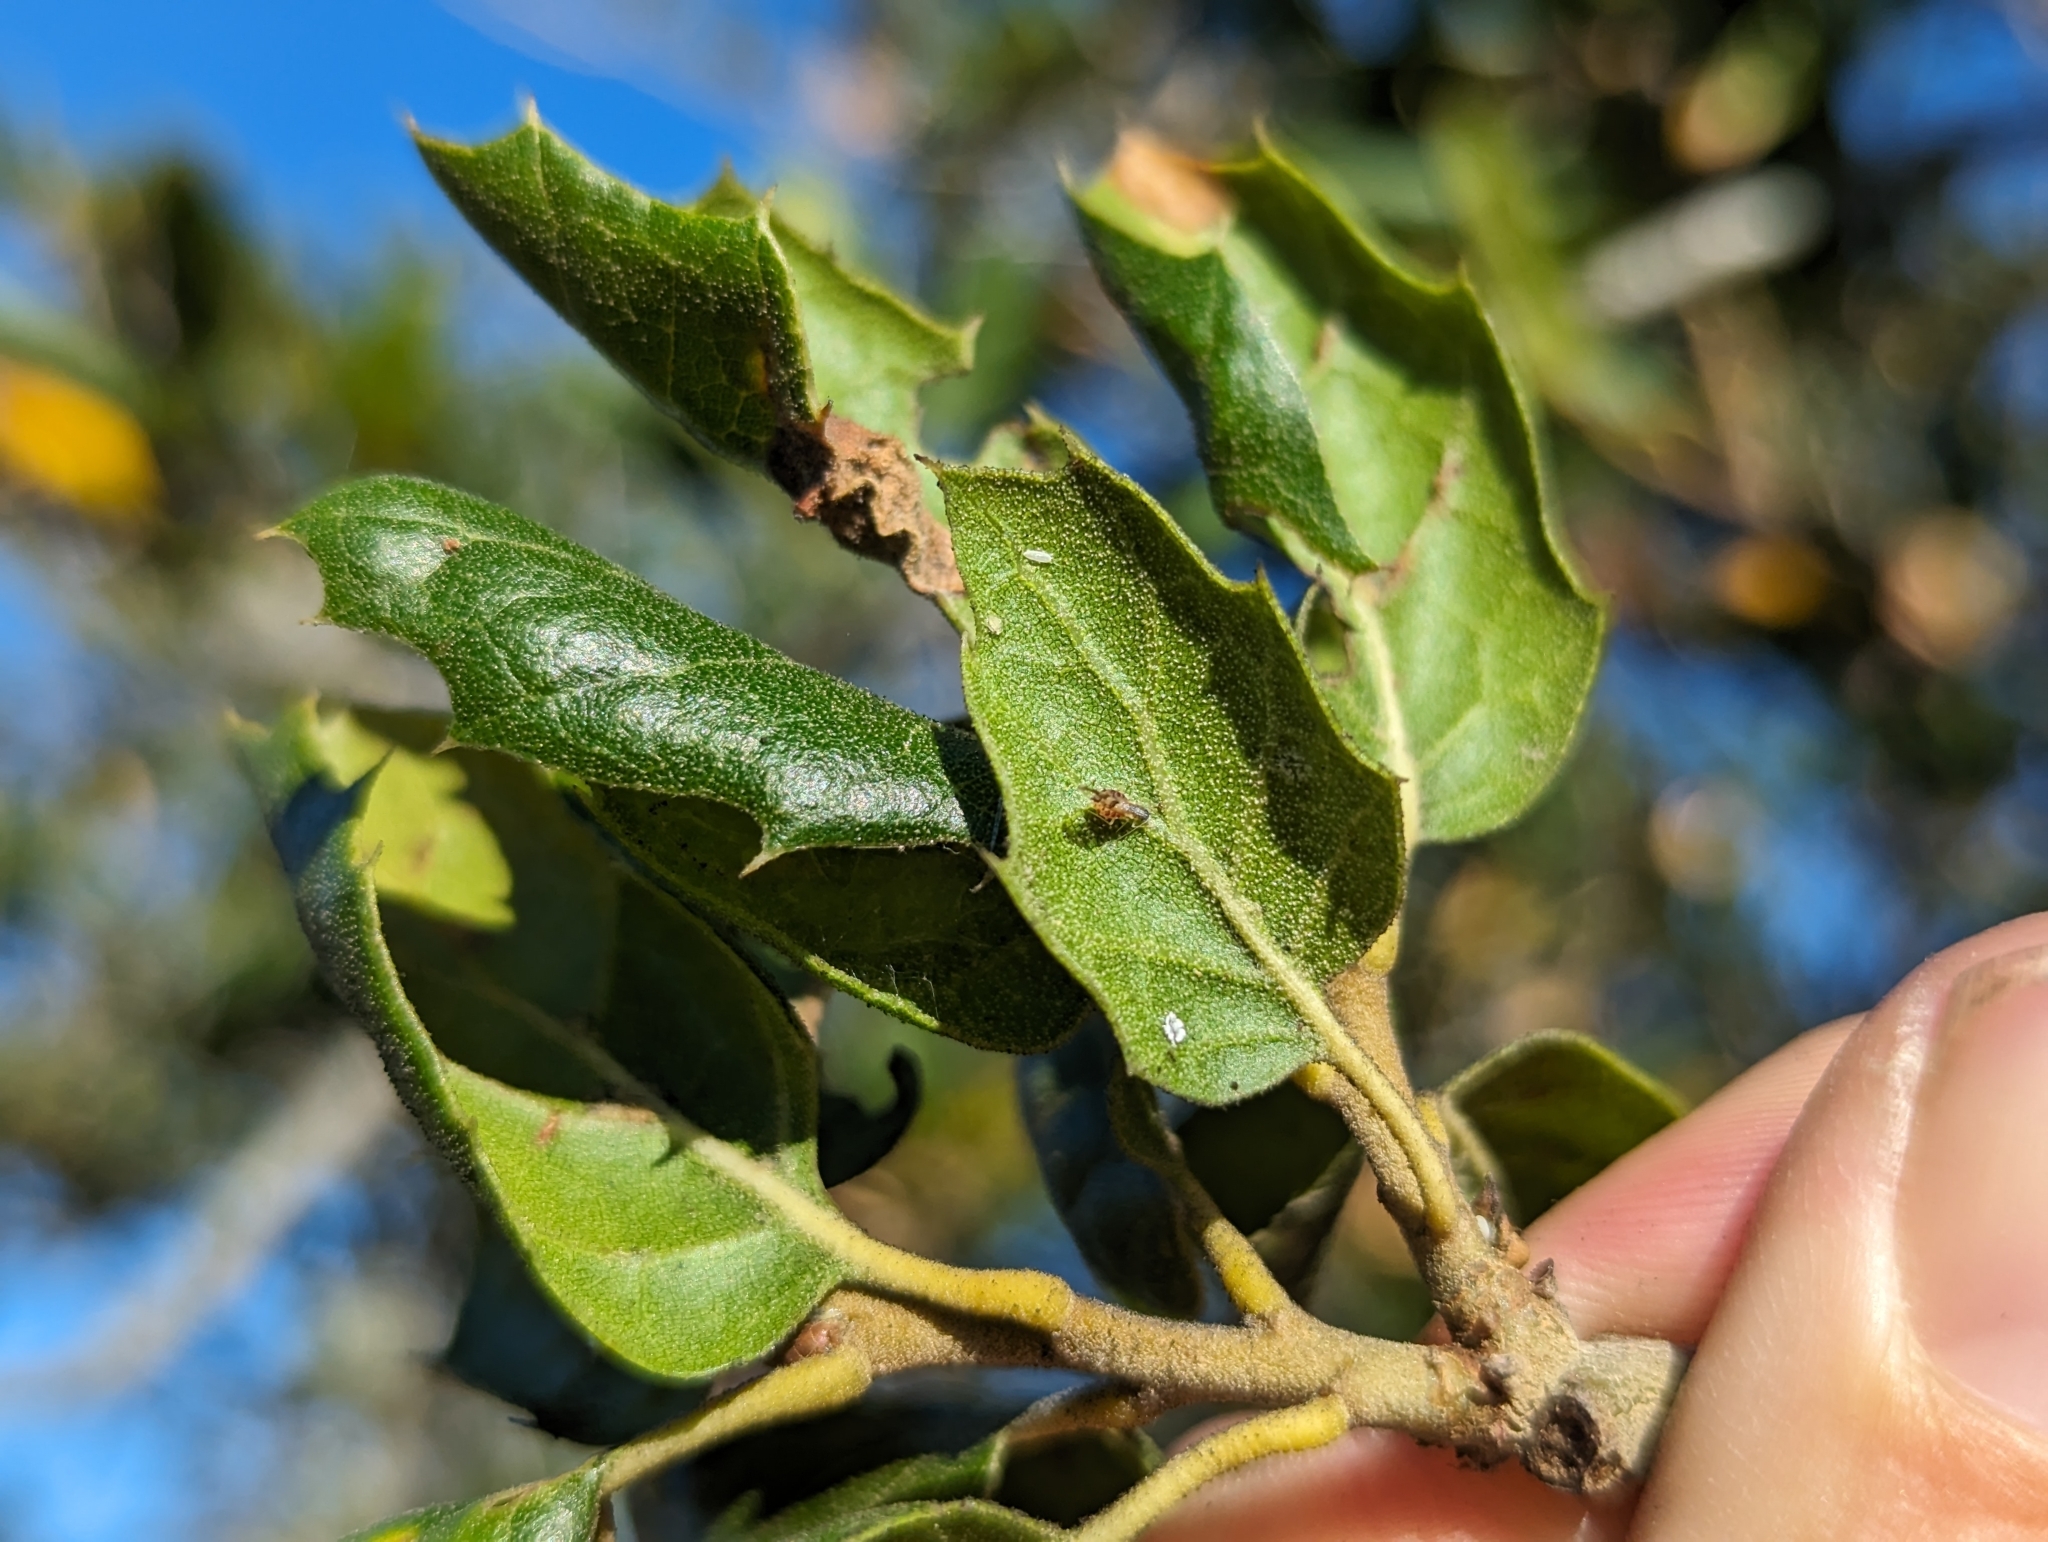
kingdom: Plantae
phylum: Tracheophyta
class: Magnoliopsida
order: Fagales
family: Fagaceae
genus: Quercus
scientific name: Quercus agrifolia
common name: California live oak
